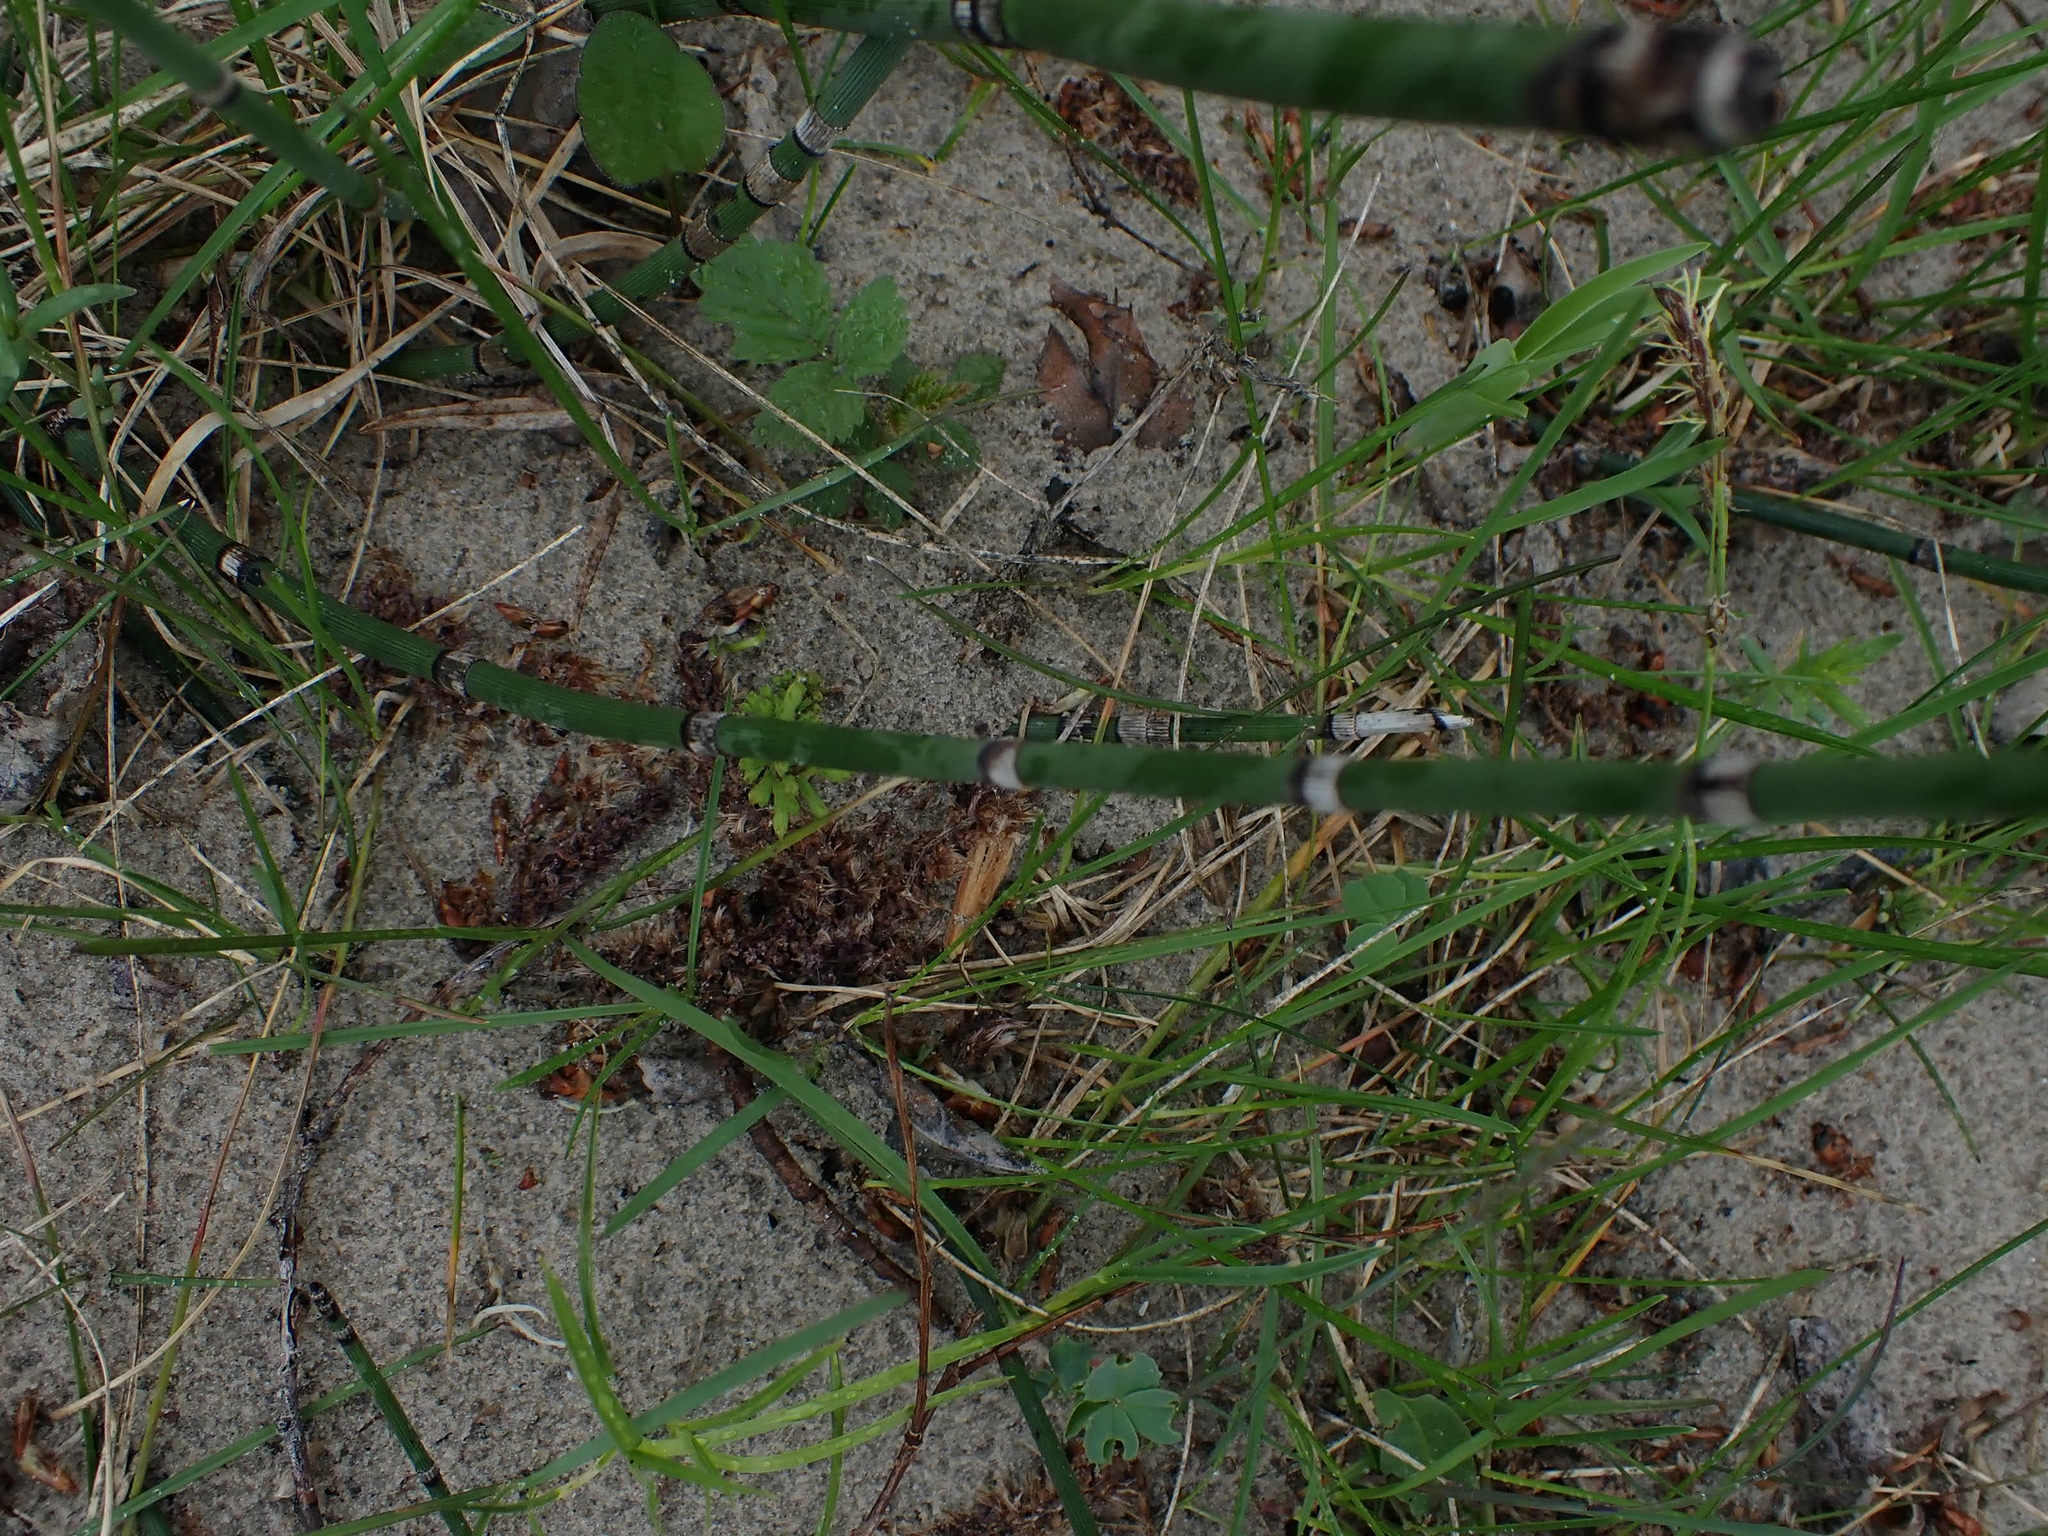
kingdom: Plantae
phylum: Tracheophyta
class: Polypodiopsida
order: Equisetales
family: Equisetaceae
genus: Equisetum
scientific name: Equisetum praealtum
